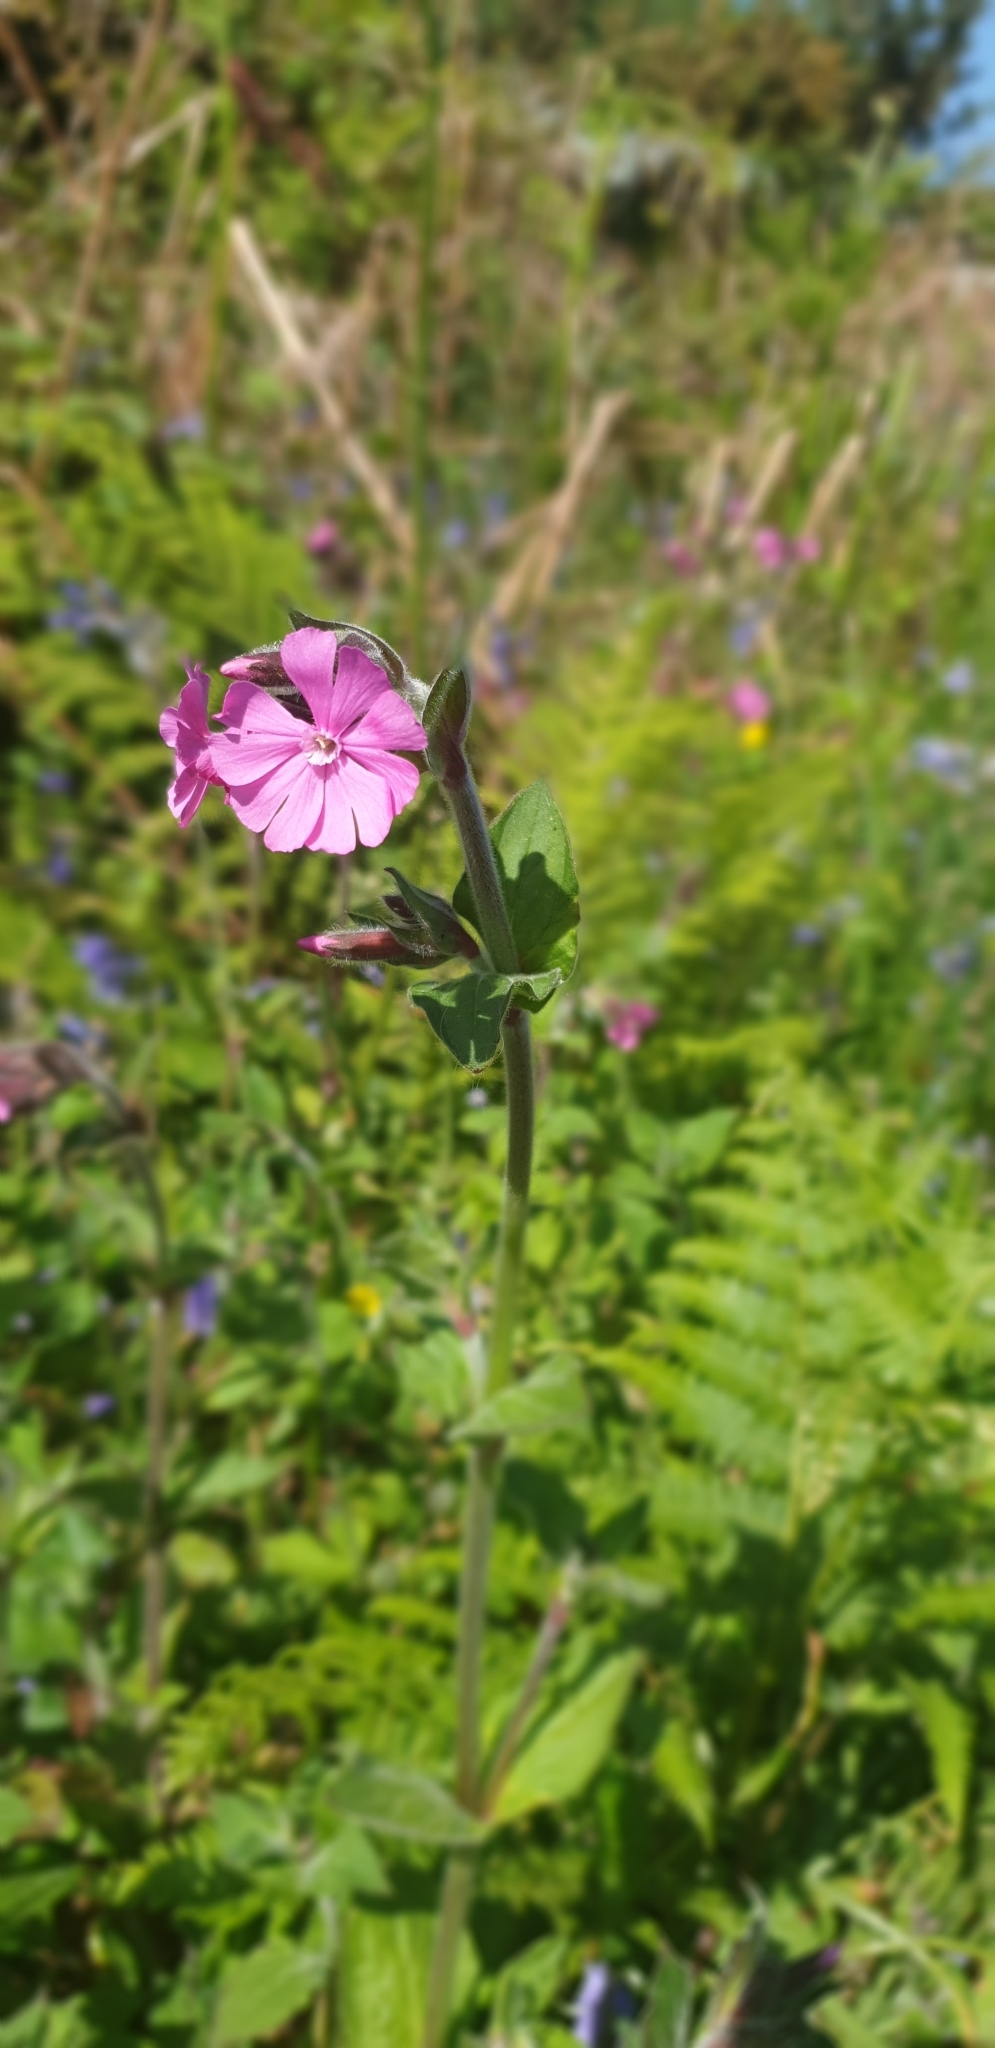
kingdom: Plantae
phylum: Tracheophyta
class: Magnoliopsida
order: Caryophyllales
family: Caryophyllaceae
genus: Silene
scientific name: Silene dioica
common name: Red campion
